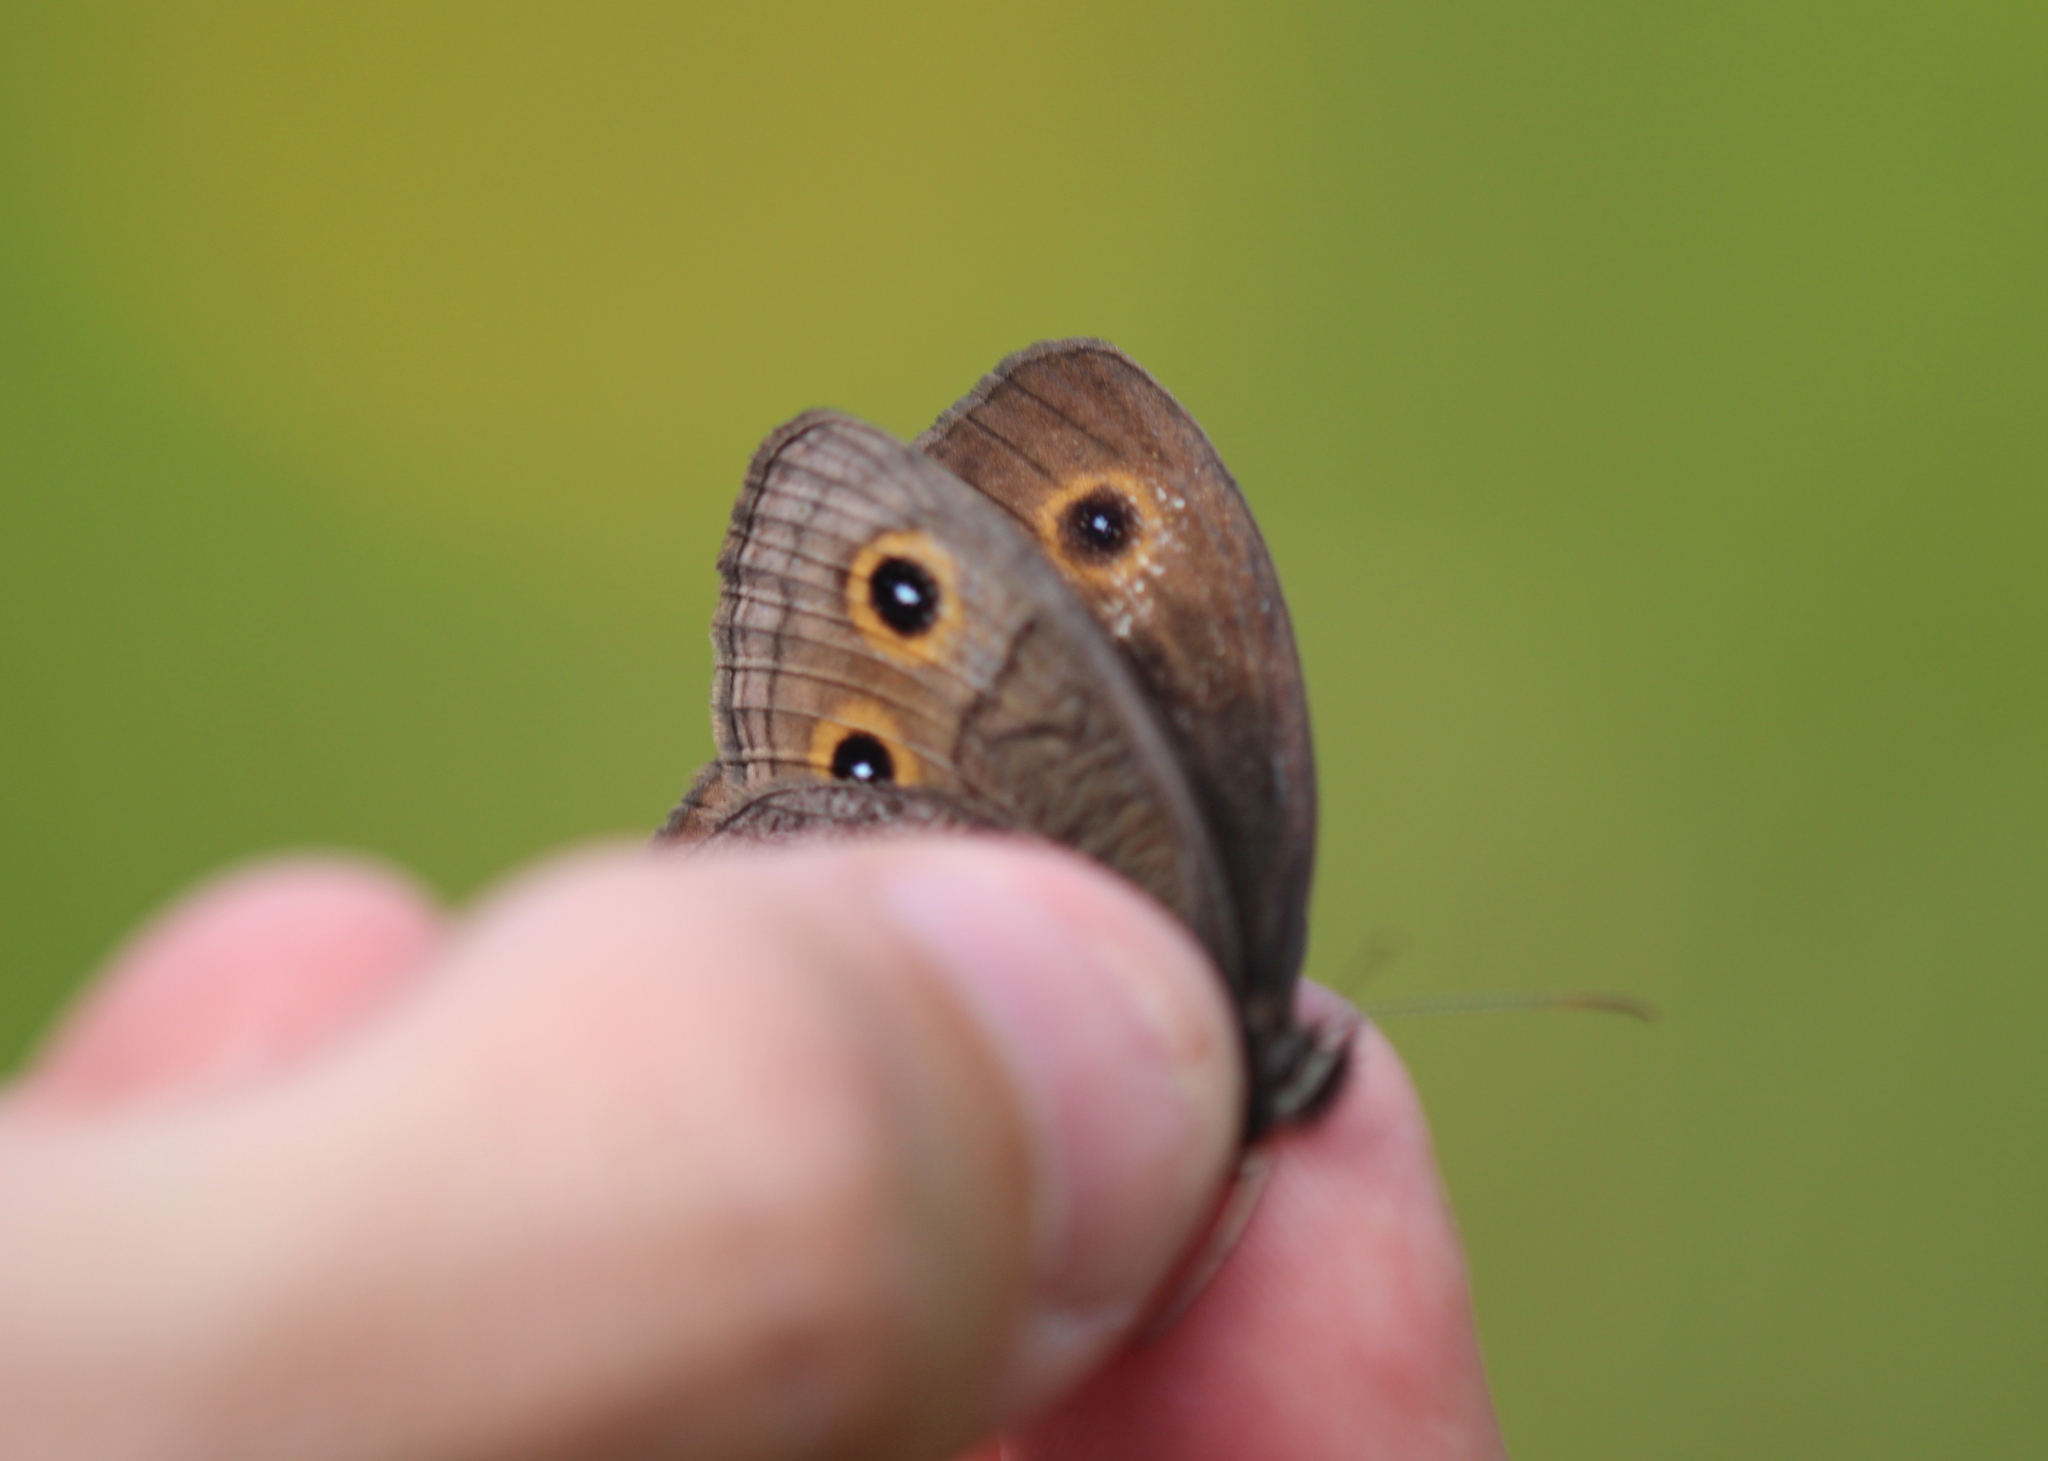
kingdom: Animalia
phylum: Arthropoda
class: Insecta
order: Lepidoptera
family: Nymphalidae
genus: Cercyonis
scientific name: Cercyonis pegala
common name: Common wood-nymph
